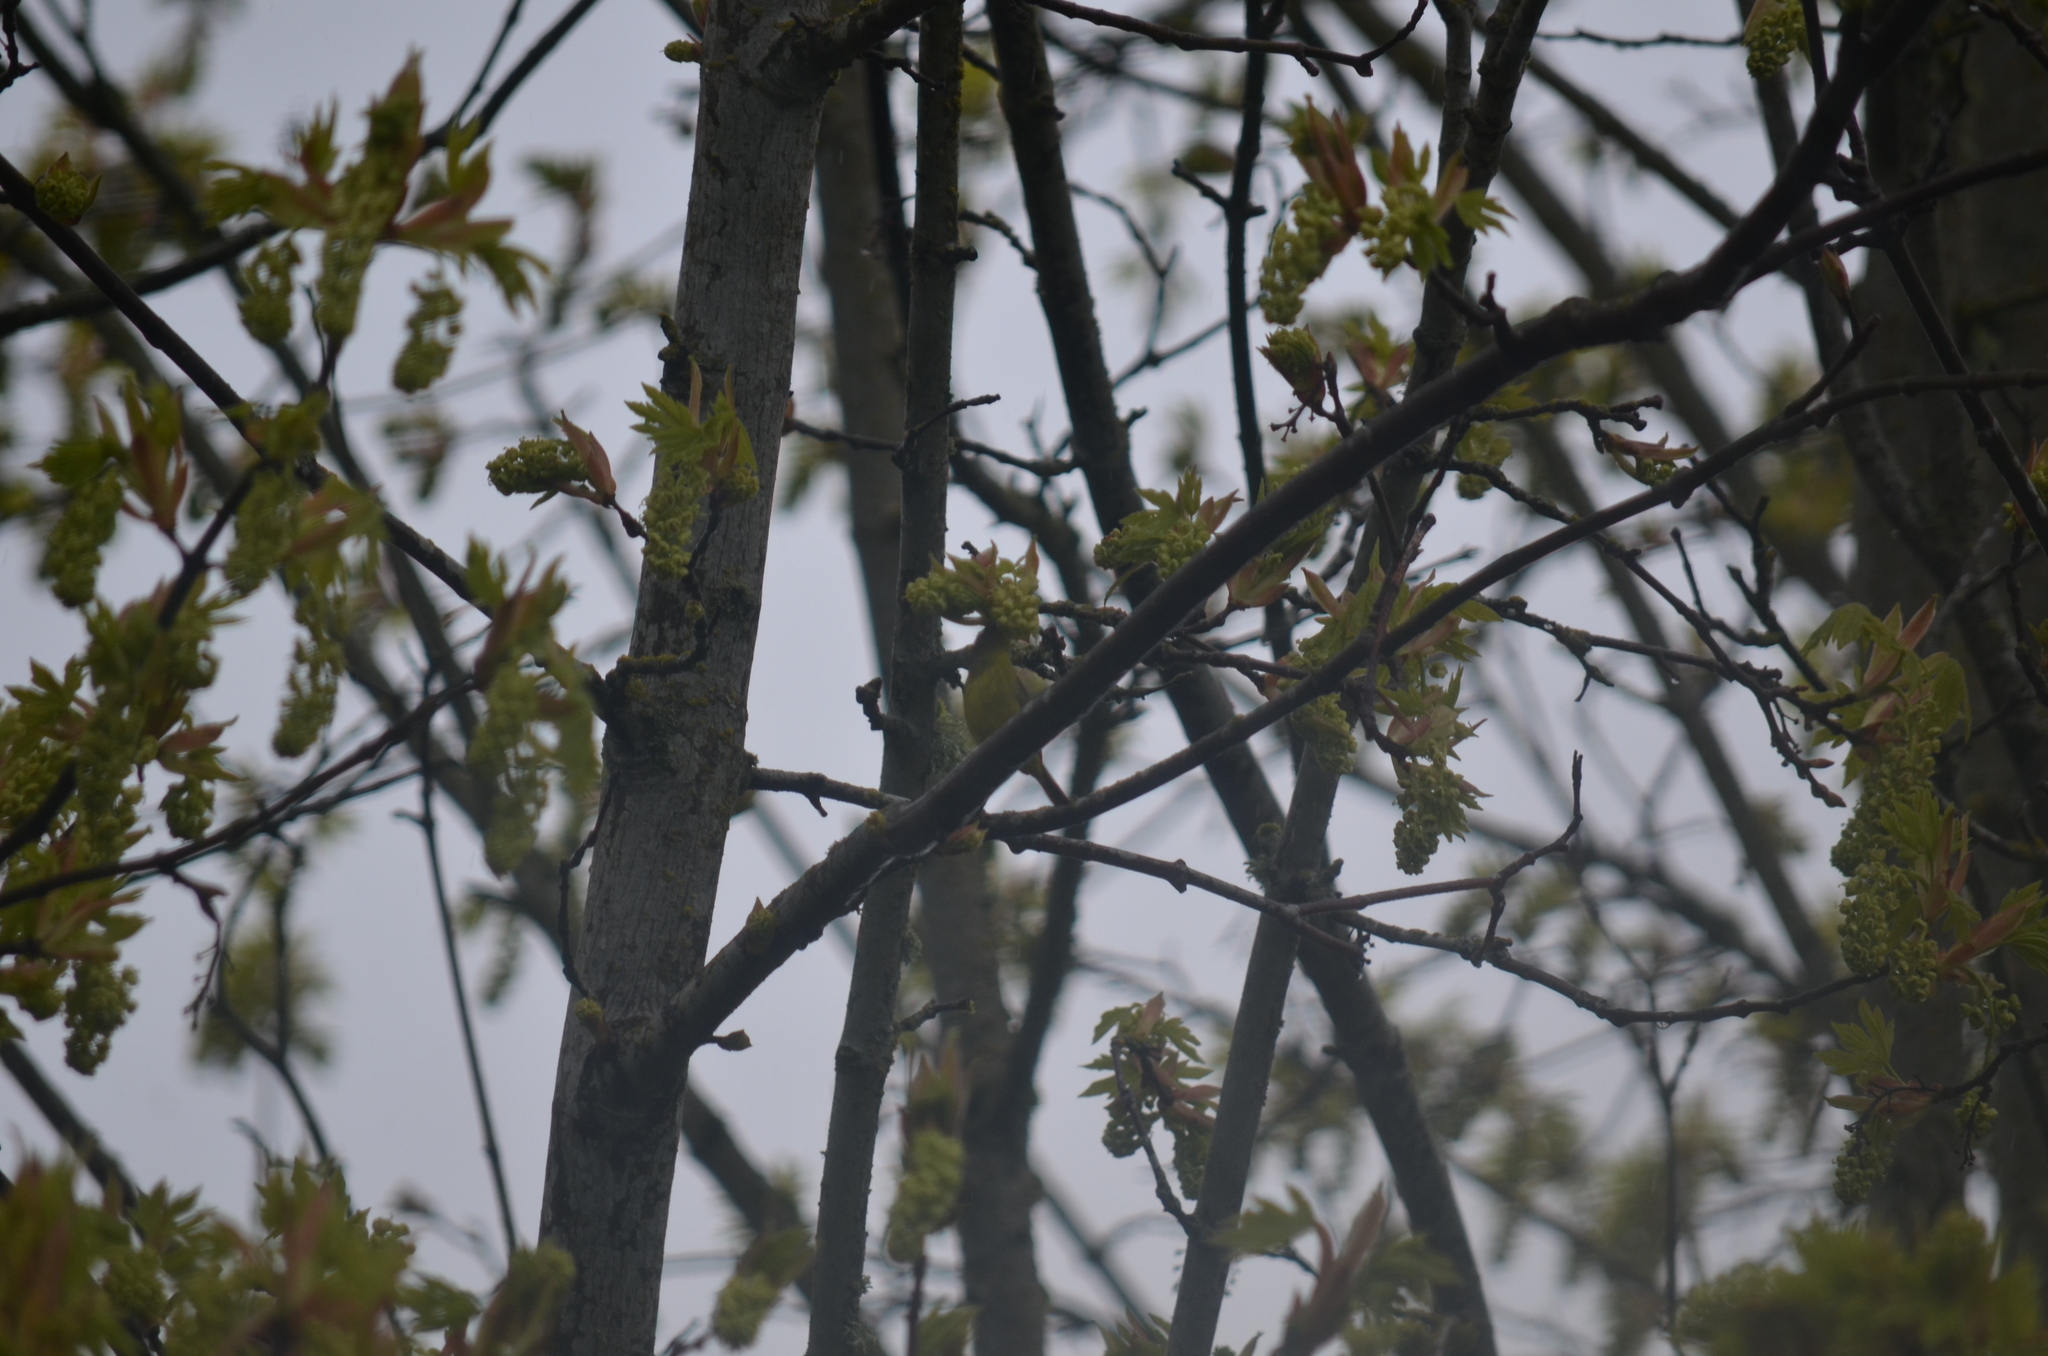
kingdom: Animalia
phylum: Chordata
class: Aves
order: Passeriformes
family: Parulidae
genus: Leiothlypis
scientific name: Leiothlypis celata
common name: Orange-crowned warbler
